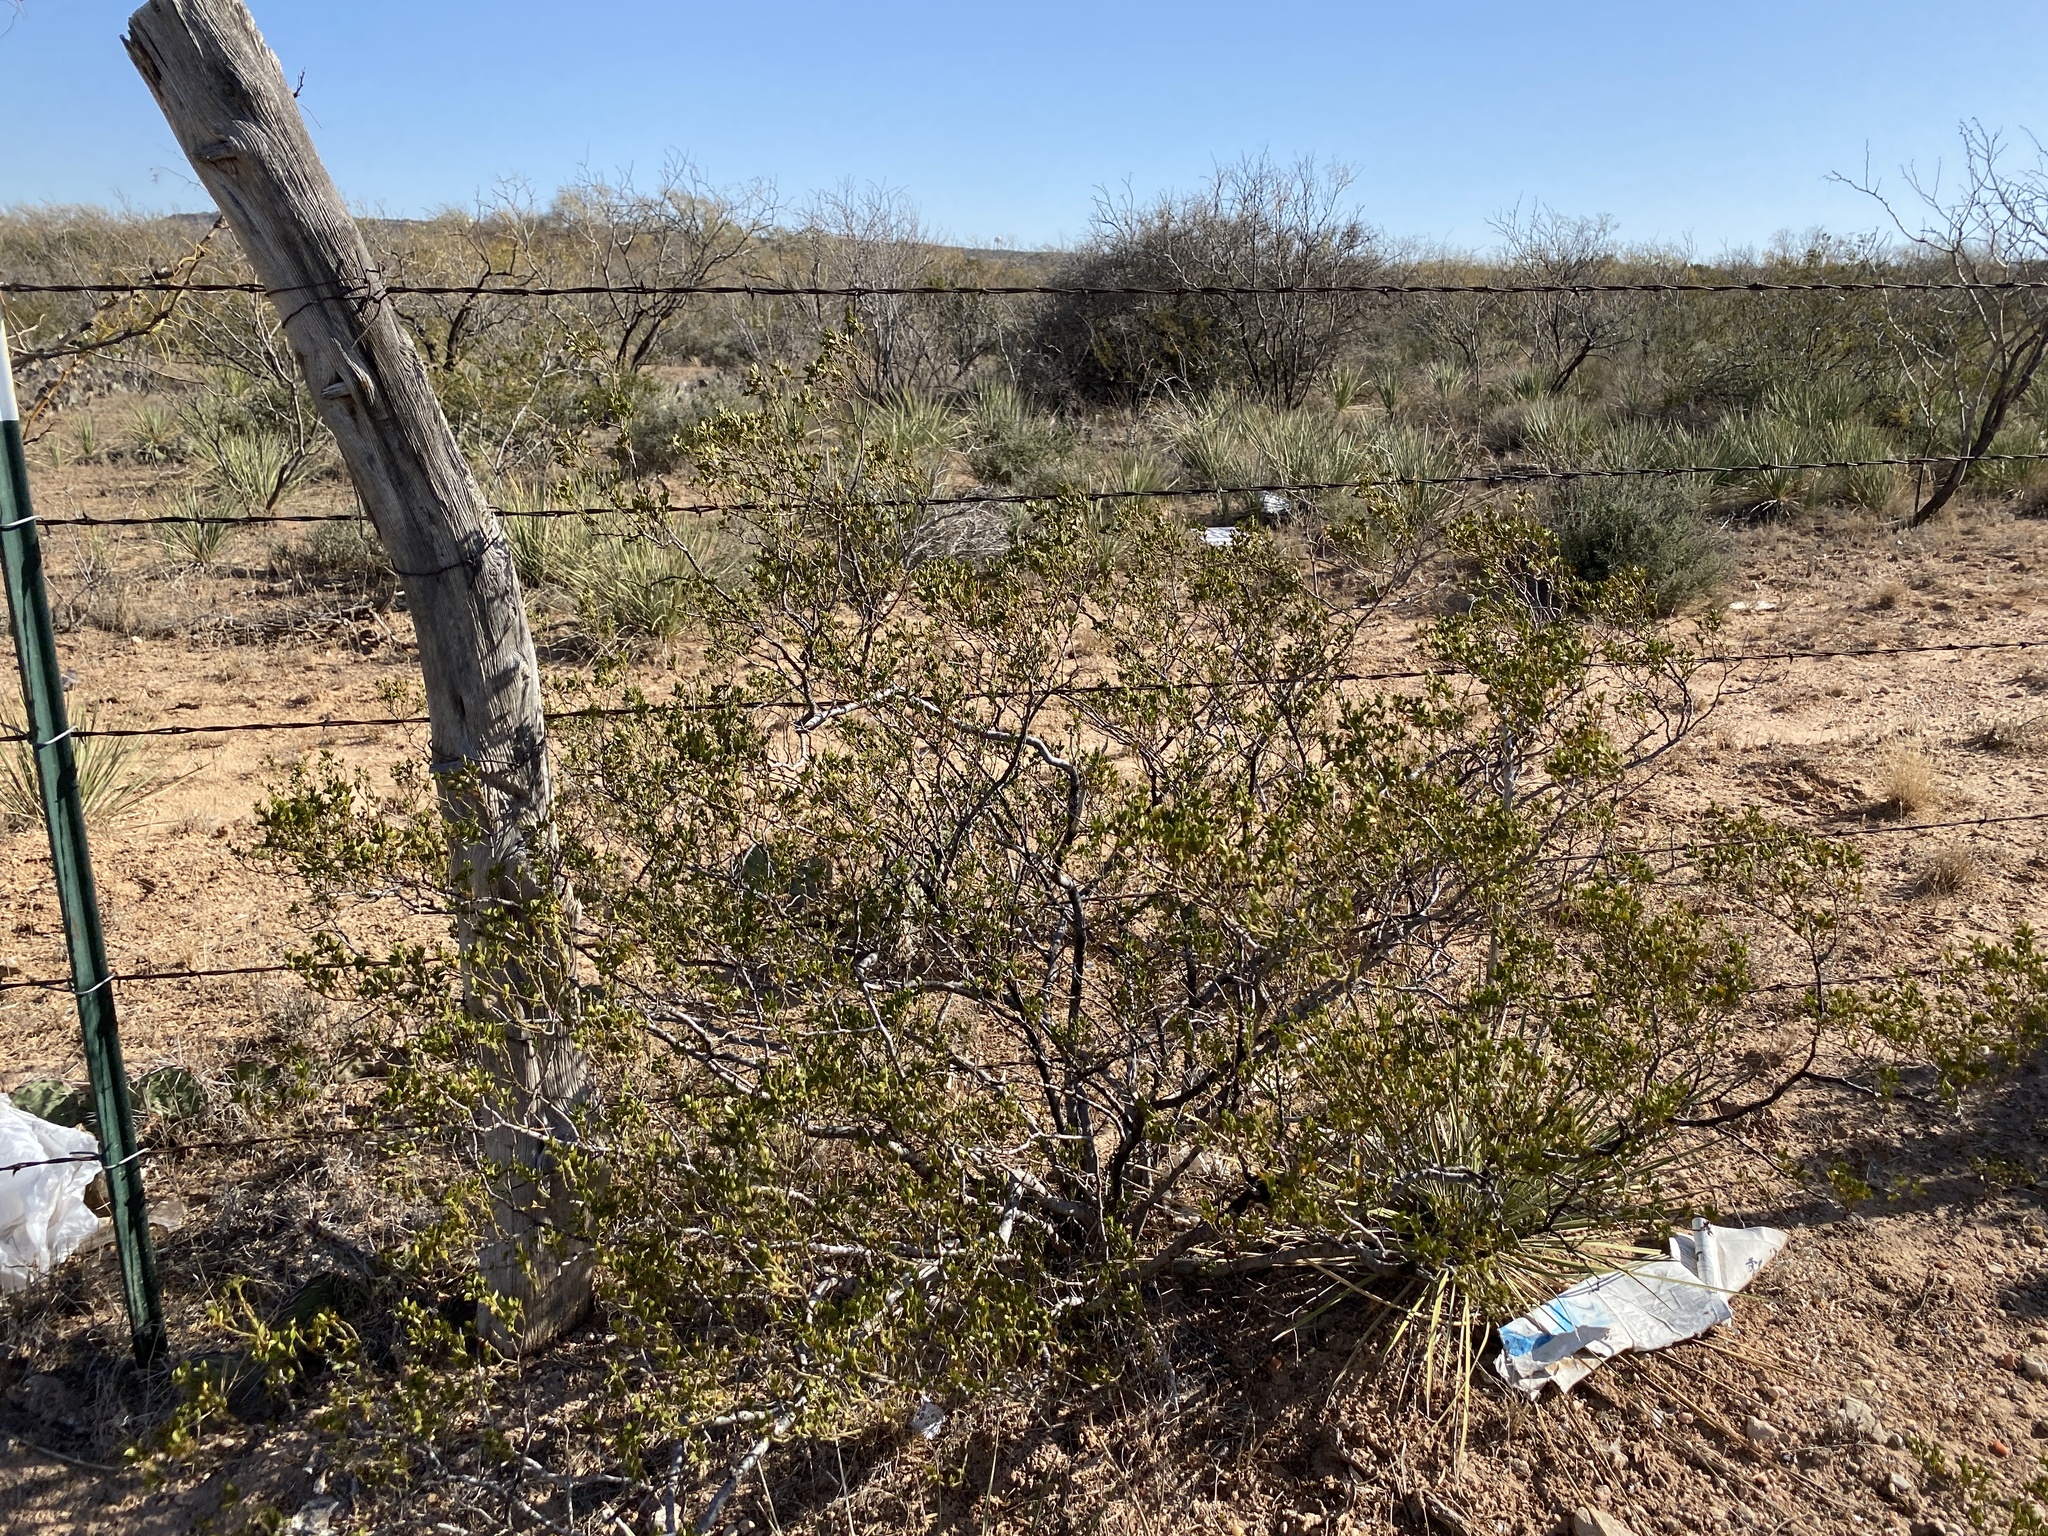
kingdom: Plantae
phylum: Tracheophyta
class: Magnoliopsida
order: Zygophyllales
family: Zygophyllaceae
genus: Larrea
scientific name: Larrea tridentata
